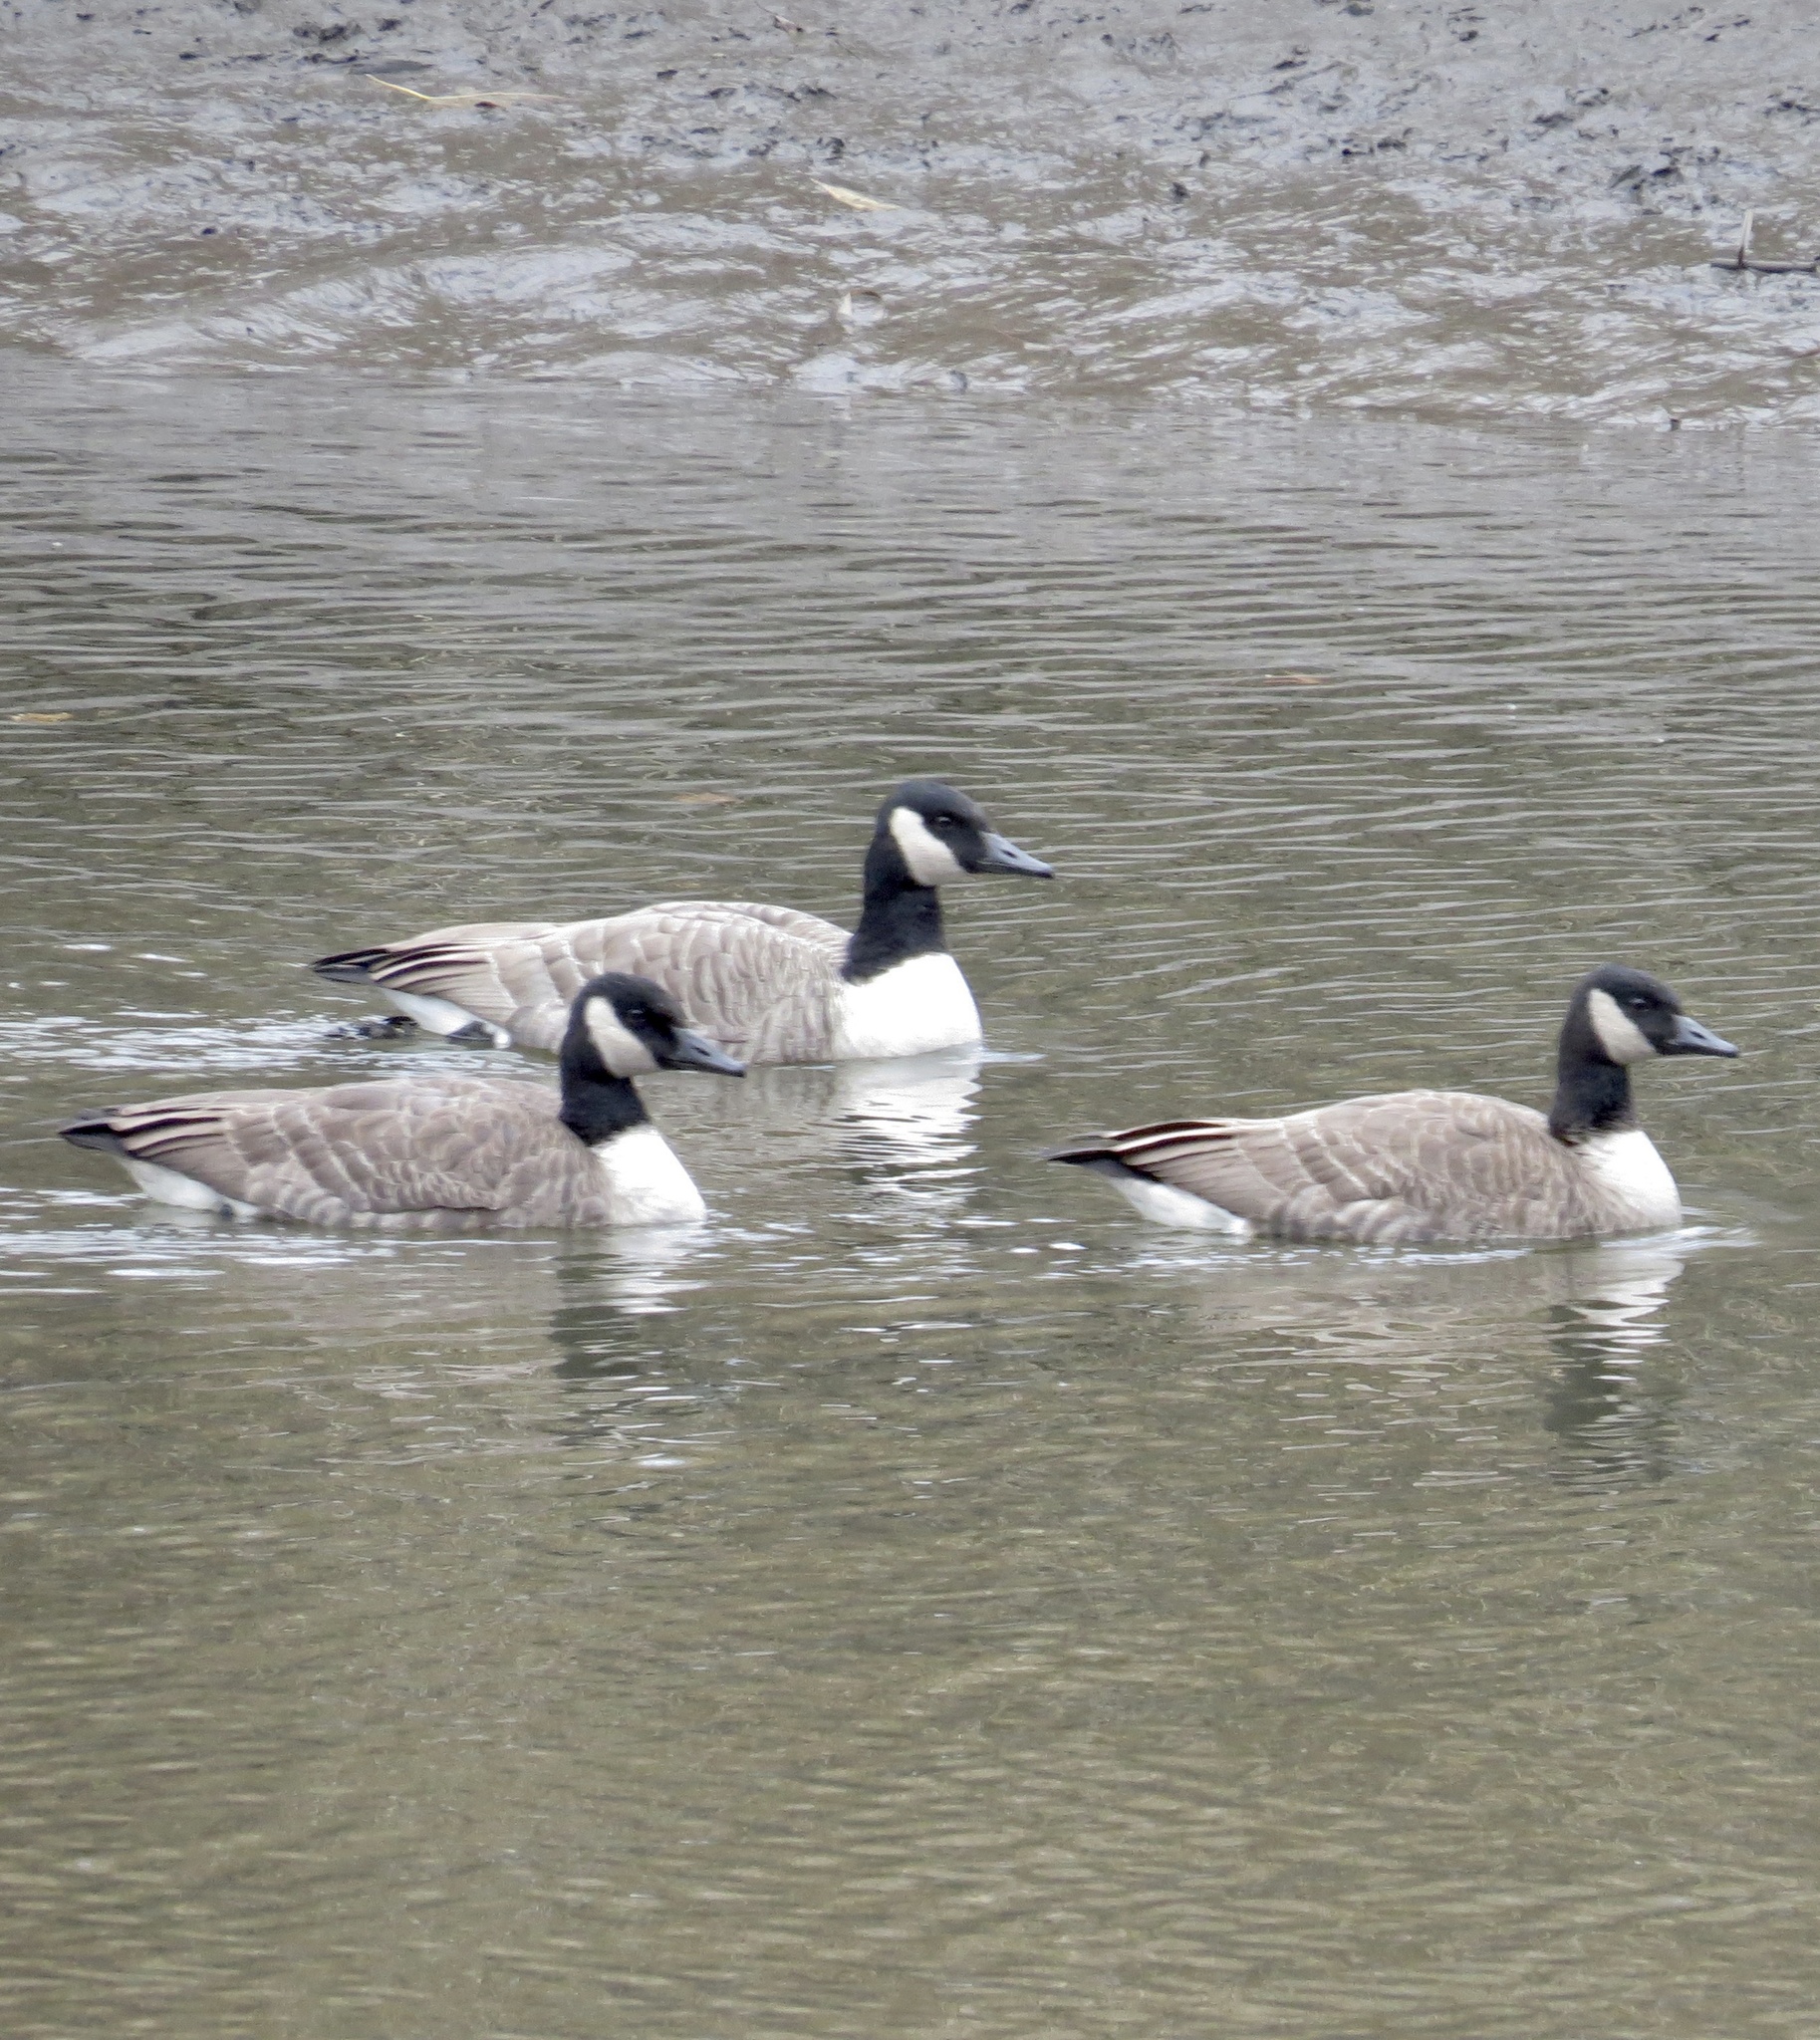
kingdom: Animalia
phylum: Chordata
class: Aves
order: Anseriformes
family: Anatidae
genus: Branta
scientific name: Branta canadensis
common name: Canada goose
